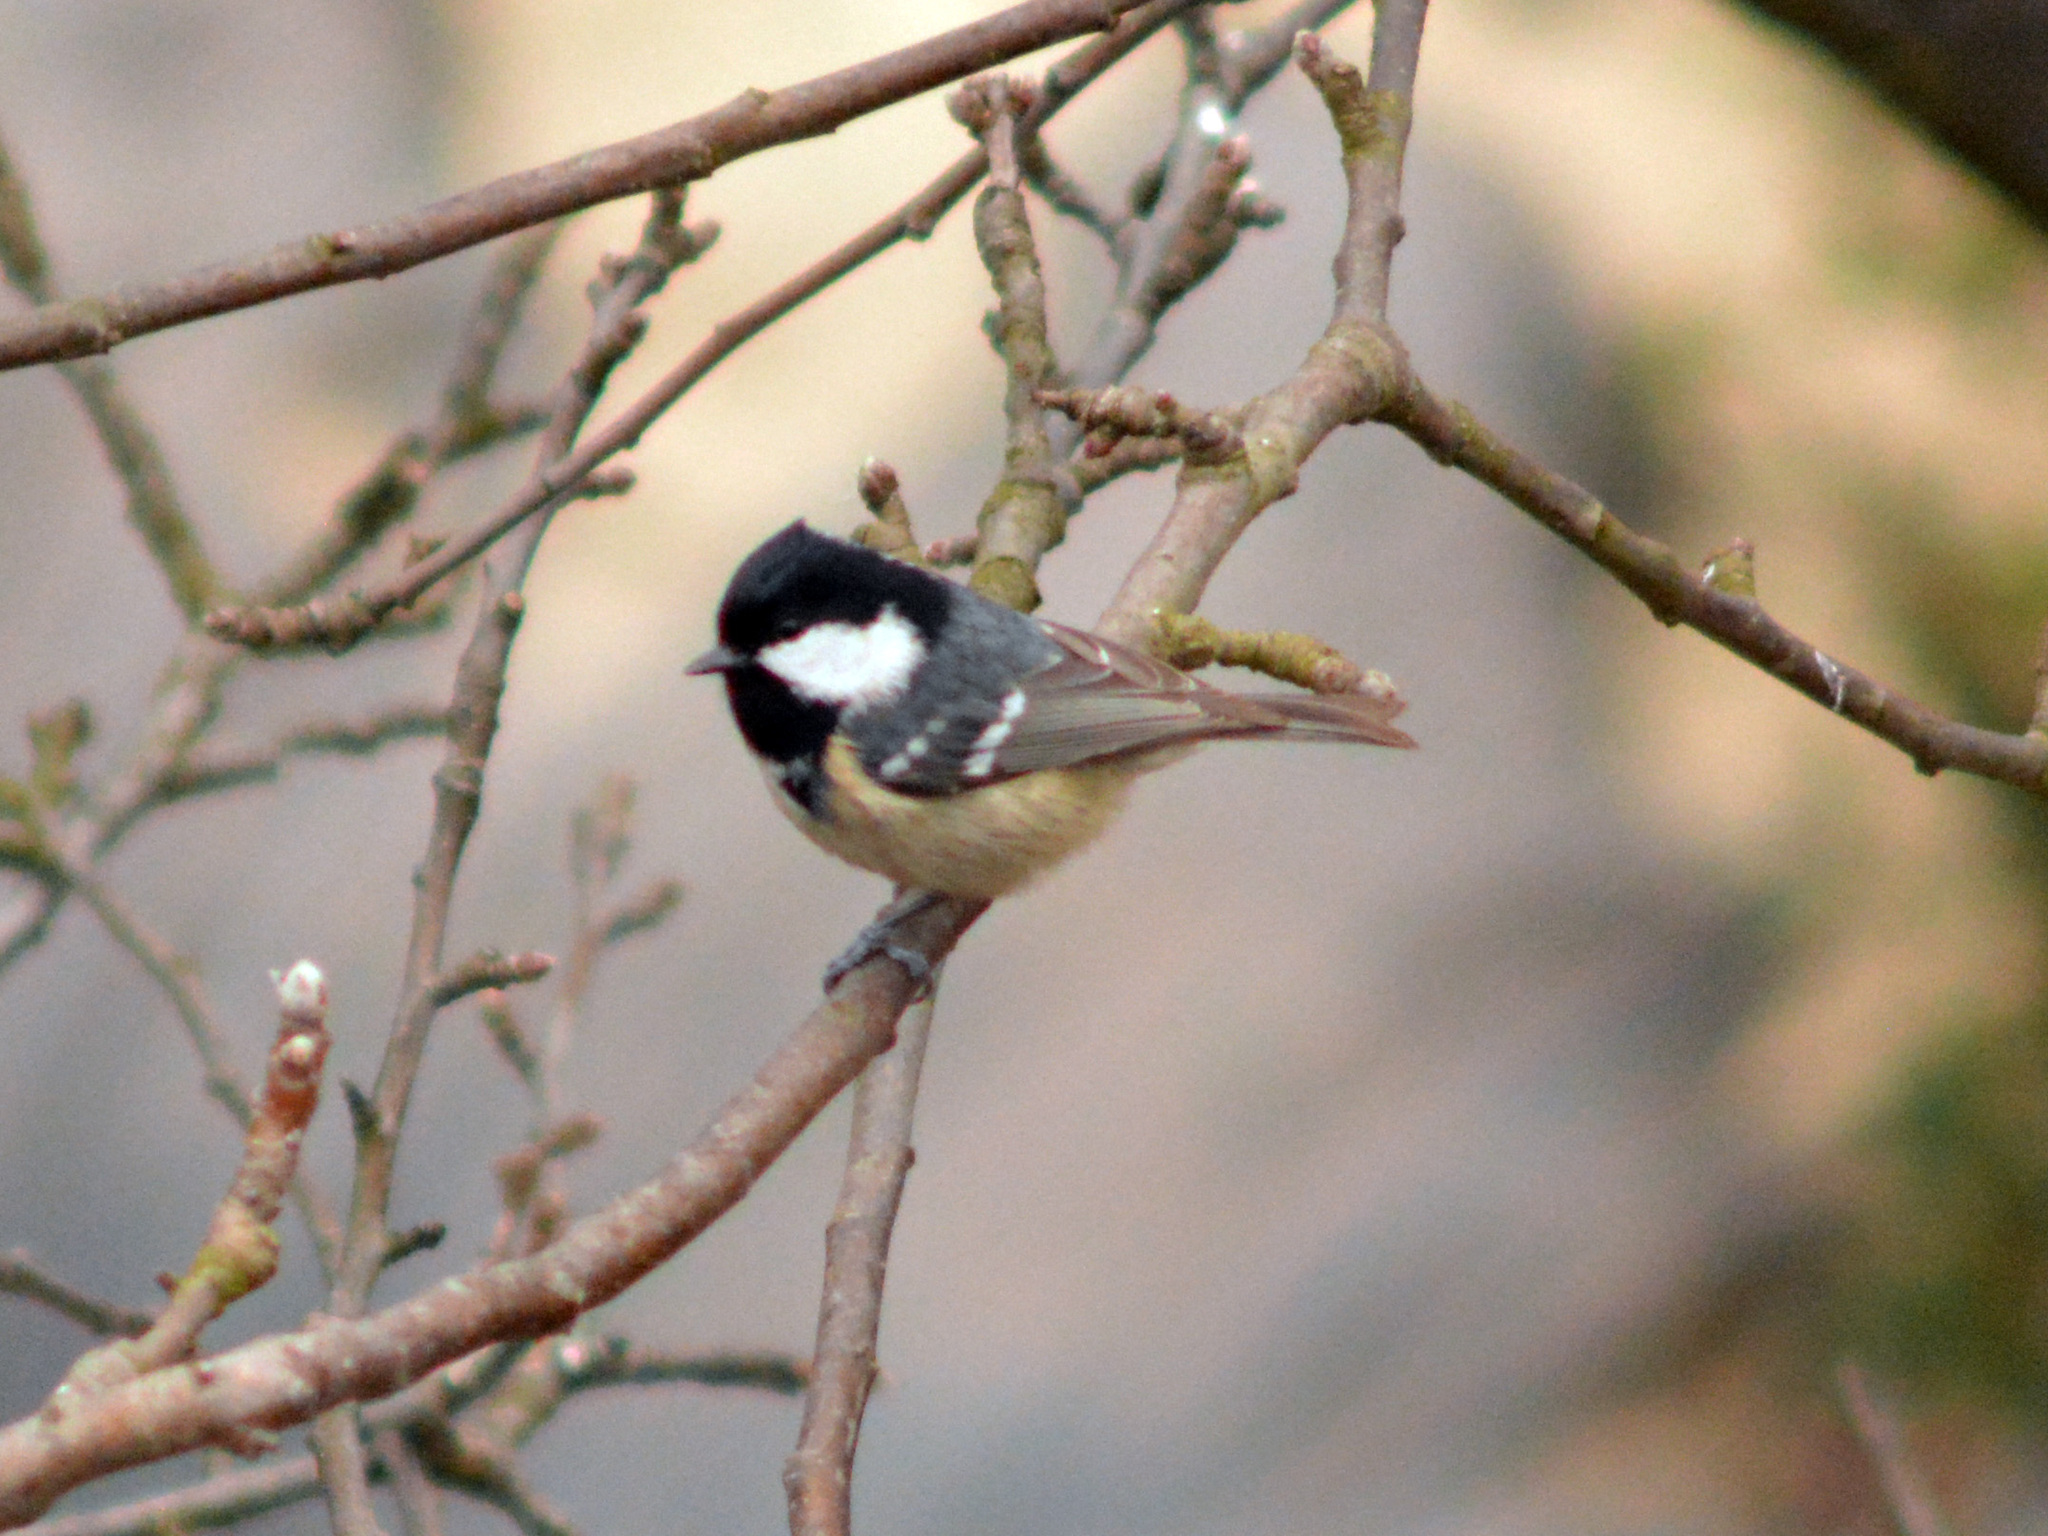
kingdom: Animalia
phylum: Chordata
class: Aves
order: Passeriformes
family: Paridae
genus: Periparus
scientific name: Periparus ater
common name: Coal tit
